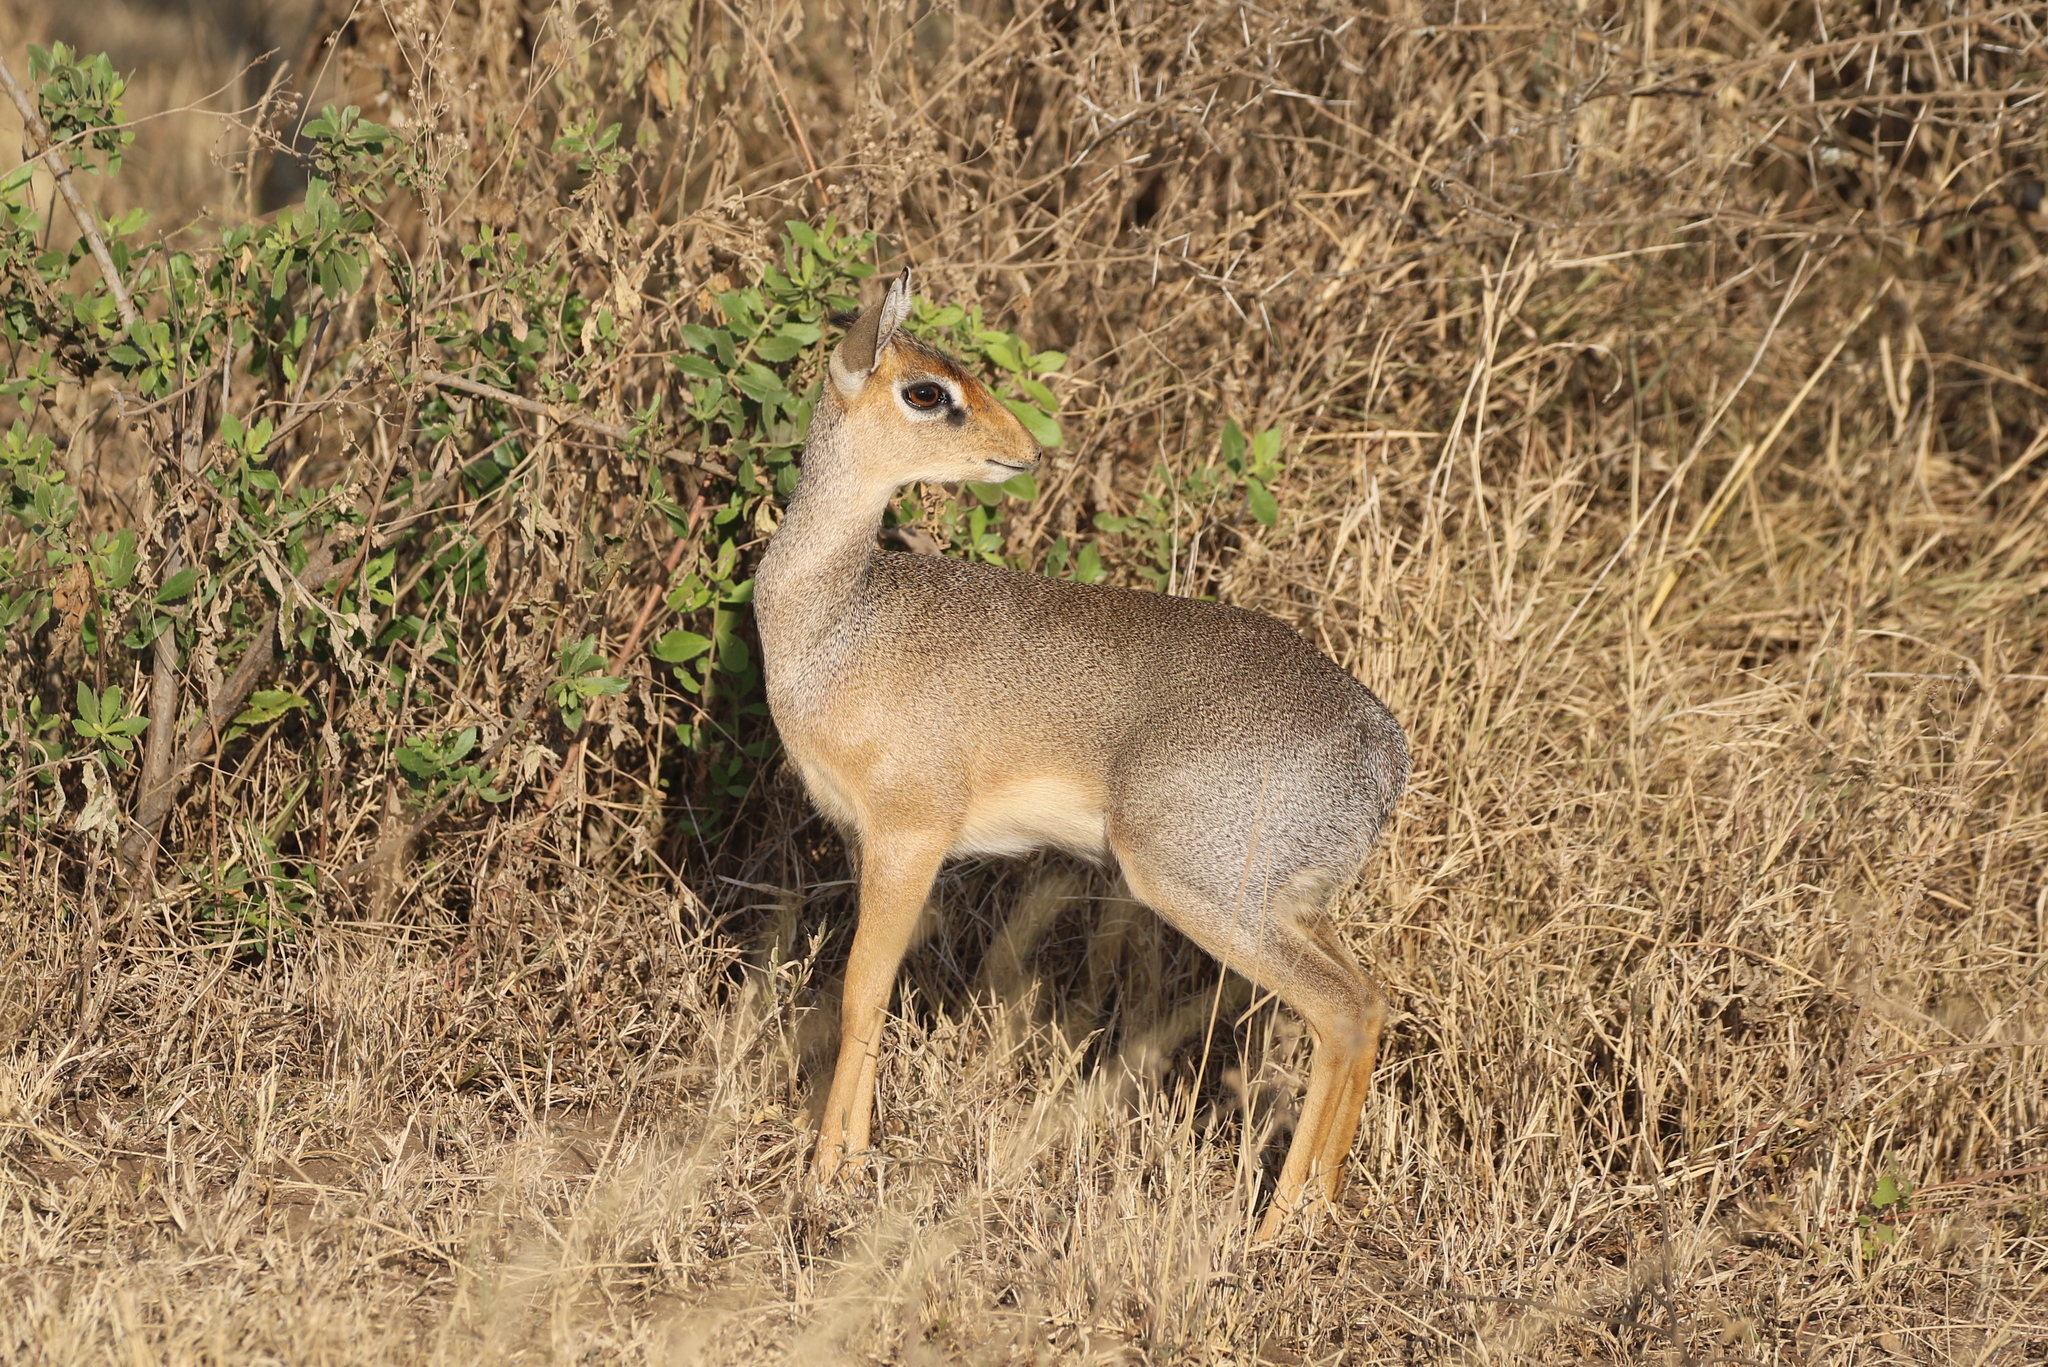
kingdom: Animalia
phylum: Chordata
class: Mammalia
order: Artiodactyla
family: Bovidae
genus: Madoqua
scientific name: Madoqua
